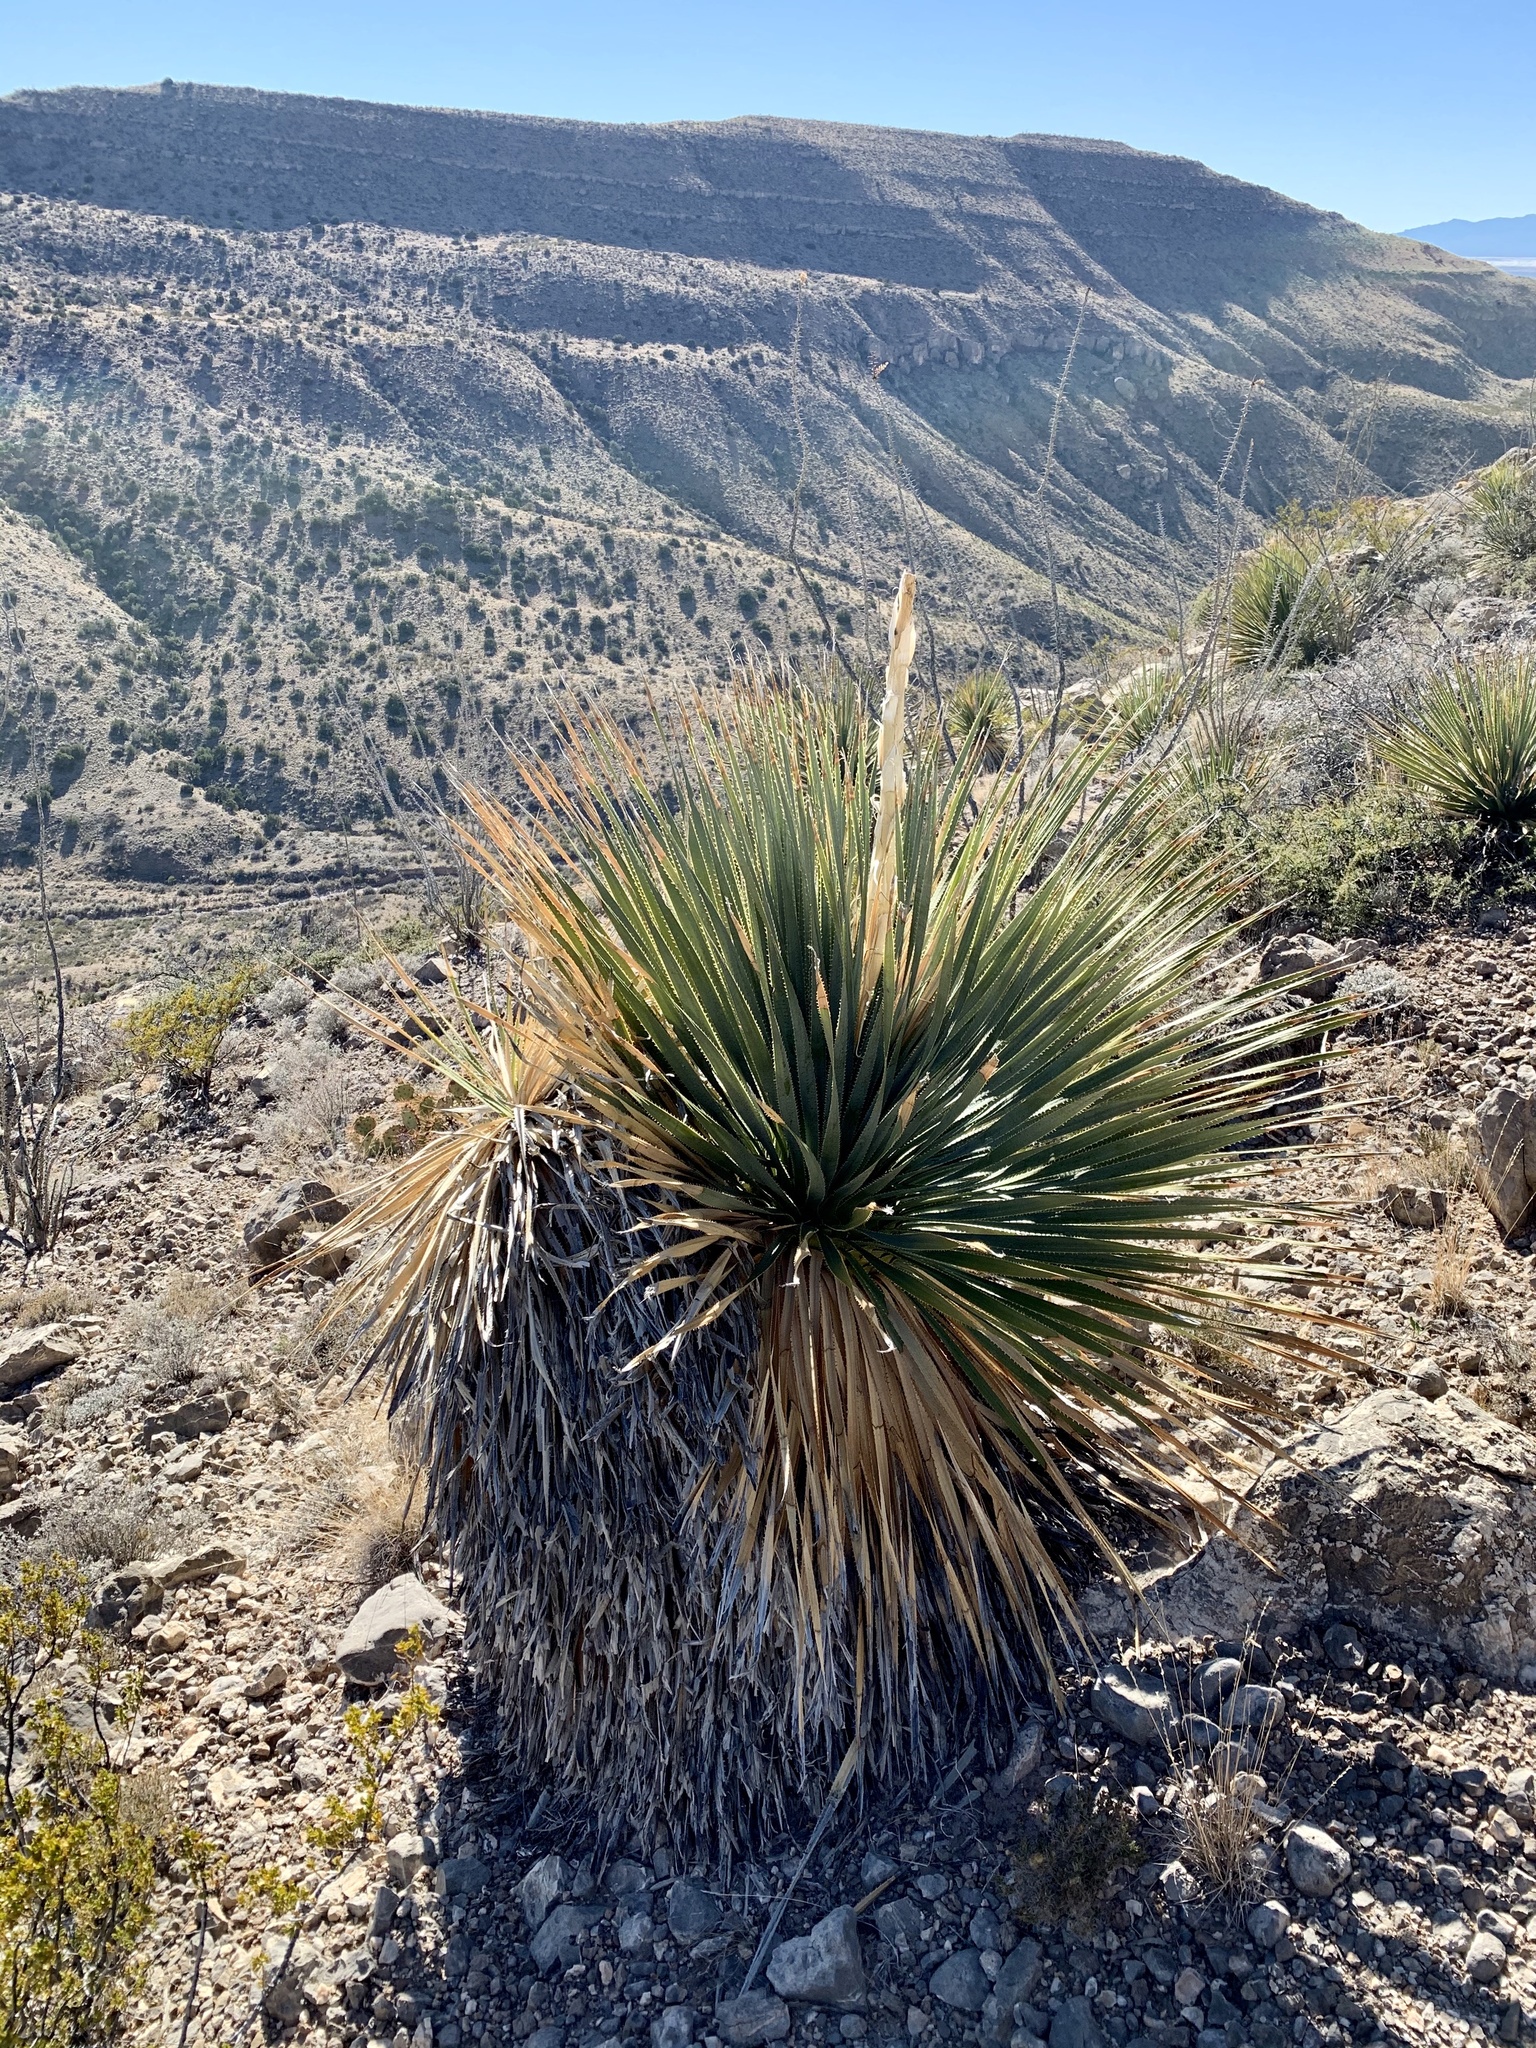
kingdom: Plantae
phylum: Tracheophyta
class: Liliopsida
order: Asparagales
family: Asparagaceae
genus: Dasylirion
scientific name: Dasylirion wheeleri
